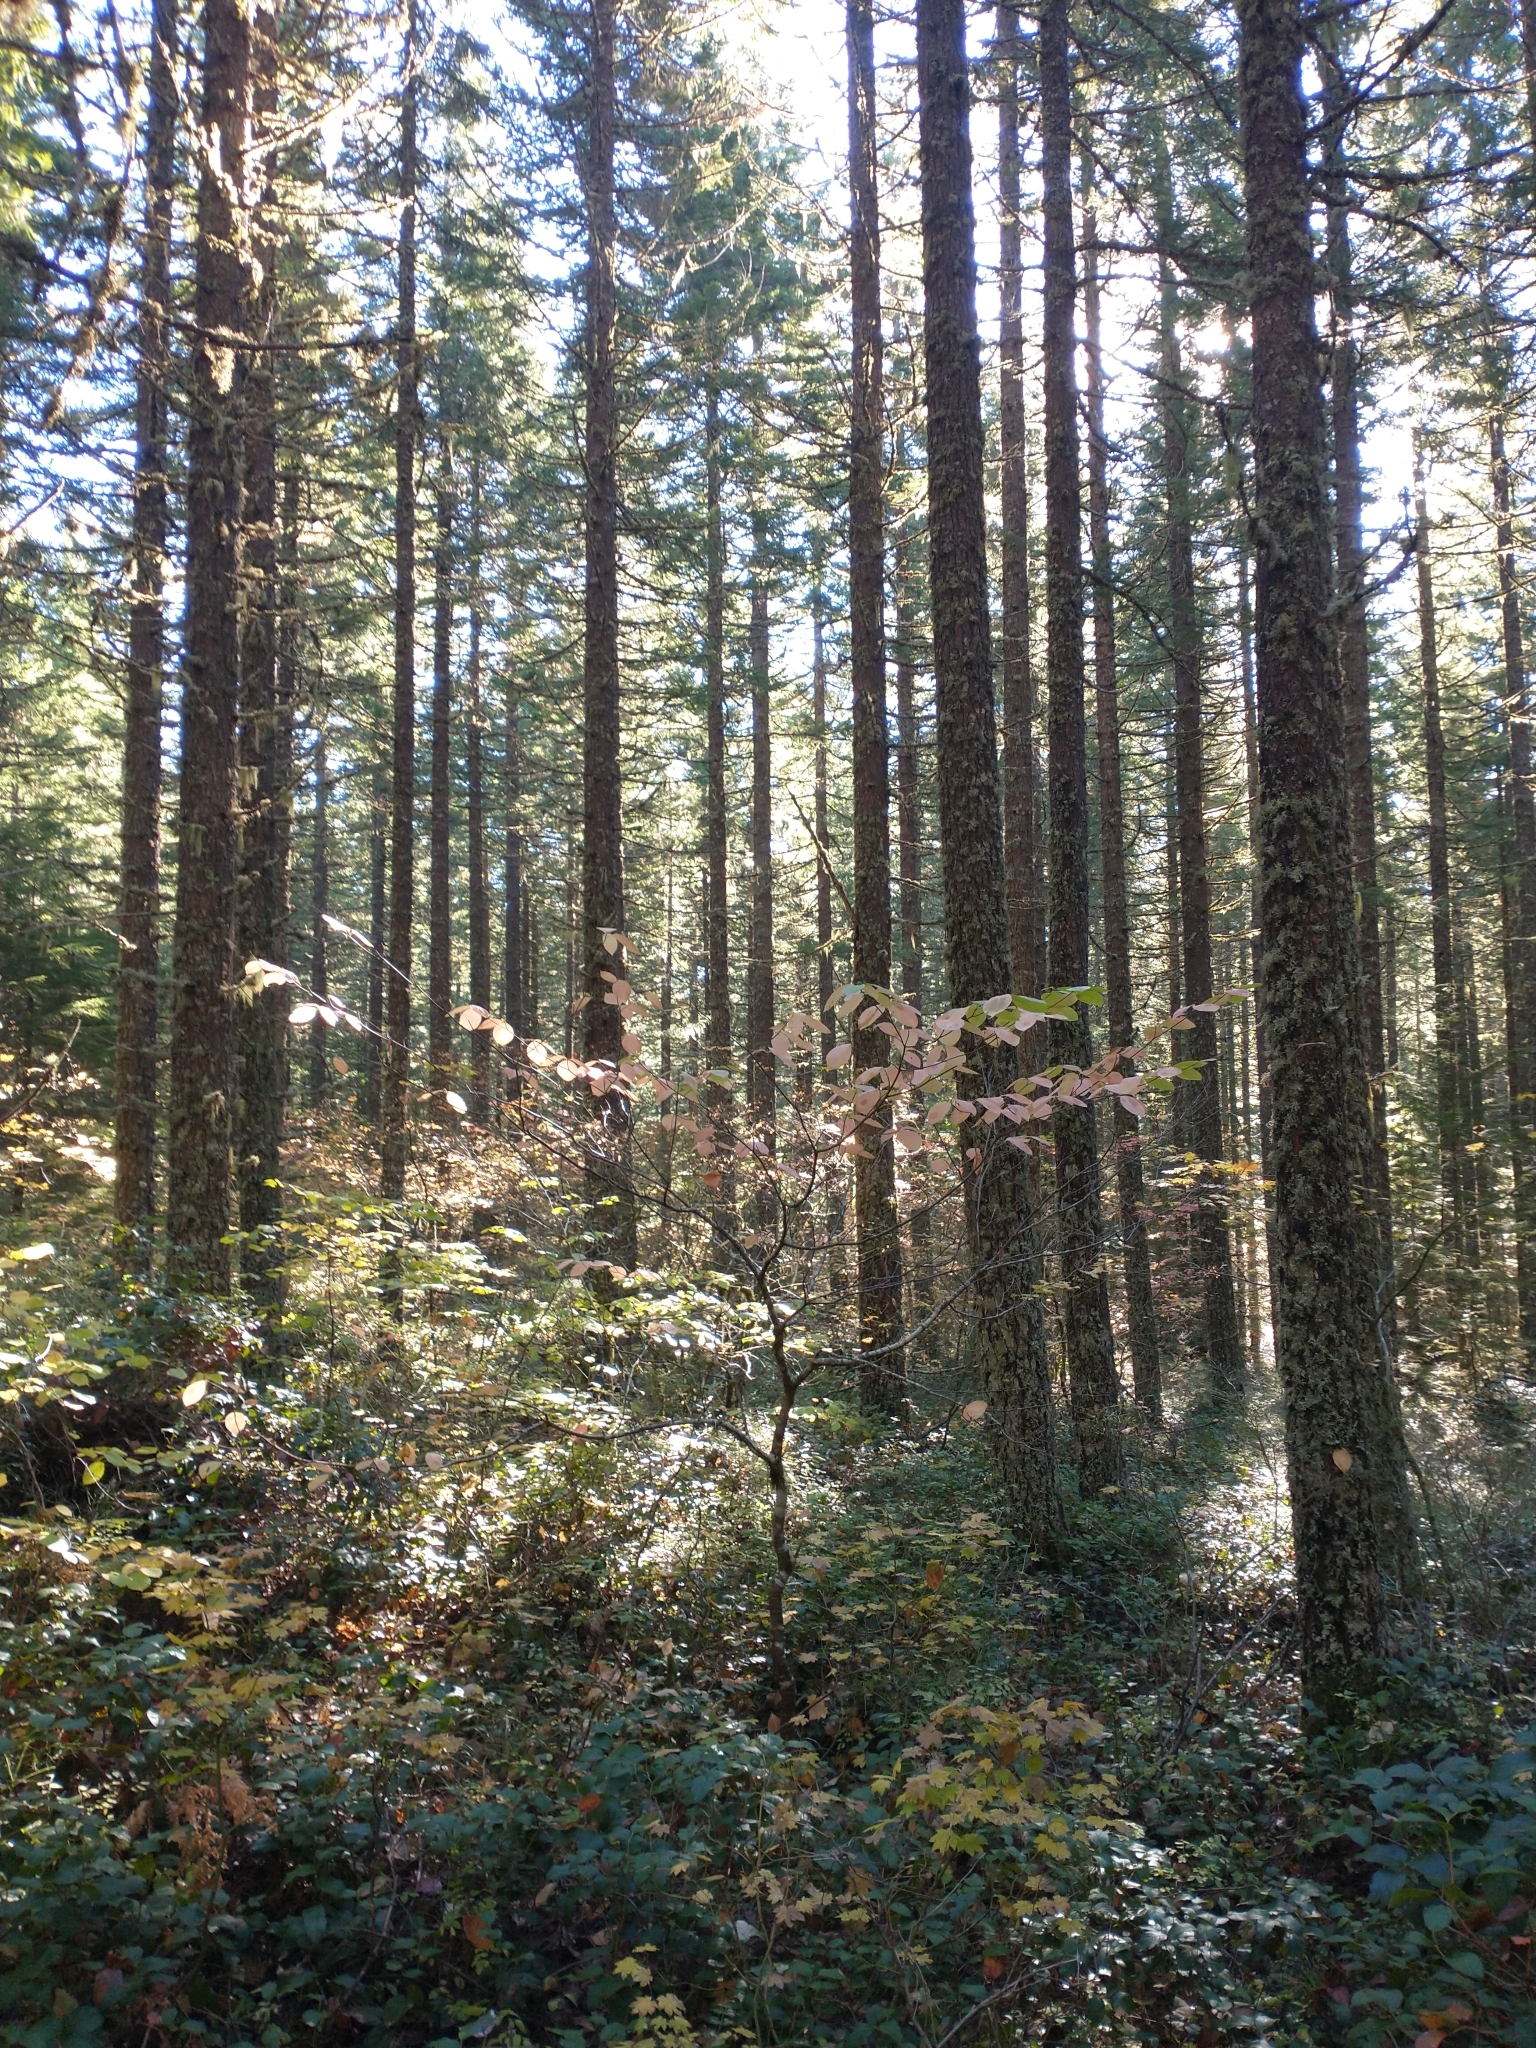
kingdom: Plantae
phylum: Tracheophyta
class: Pinopsida
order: Pinales
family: Pinaceae
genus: Pseudotsuga
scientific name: Pseudotsuga menziesii
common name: Douglas fir
